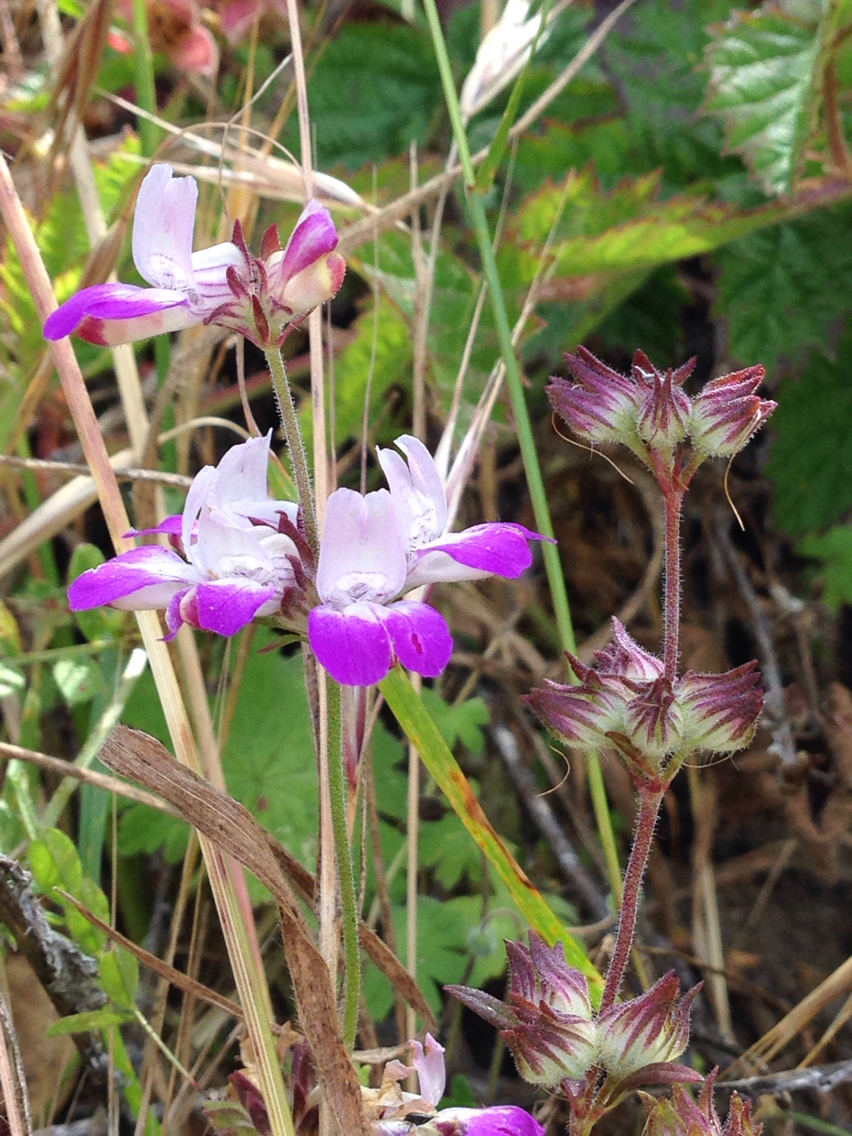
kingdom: Plantae
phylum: Tracheophyta
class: Magnoliopsida
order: Lamiales
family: Plantaginaceae
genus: Collinsia
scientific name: Collinsia heterophylla
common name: Chinese-houses
